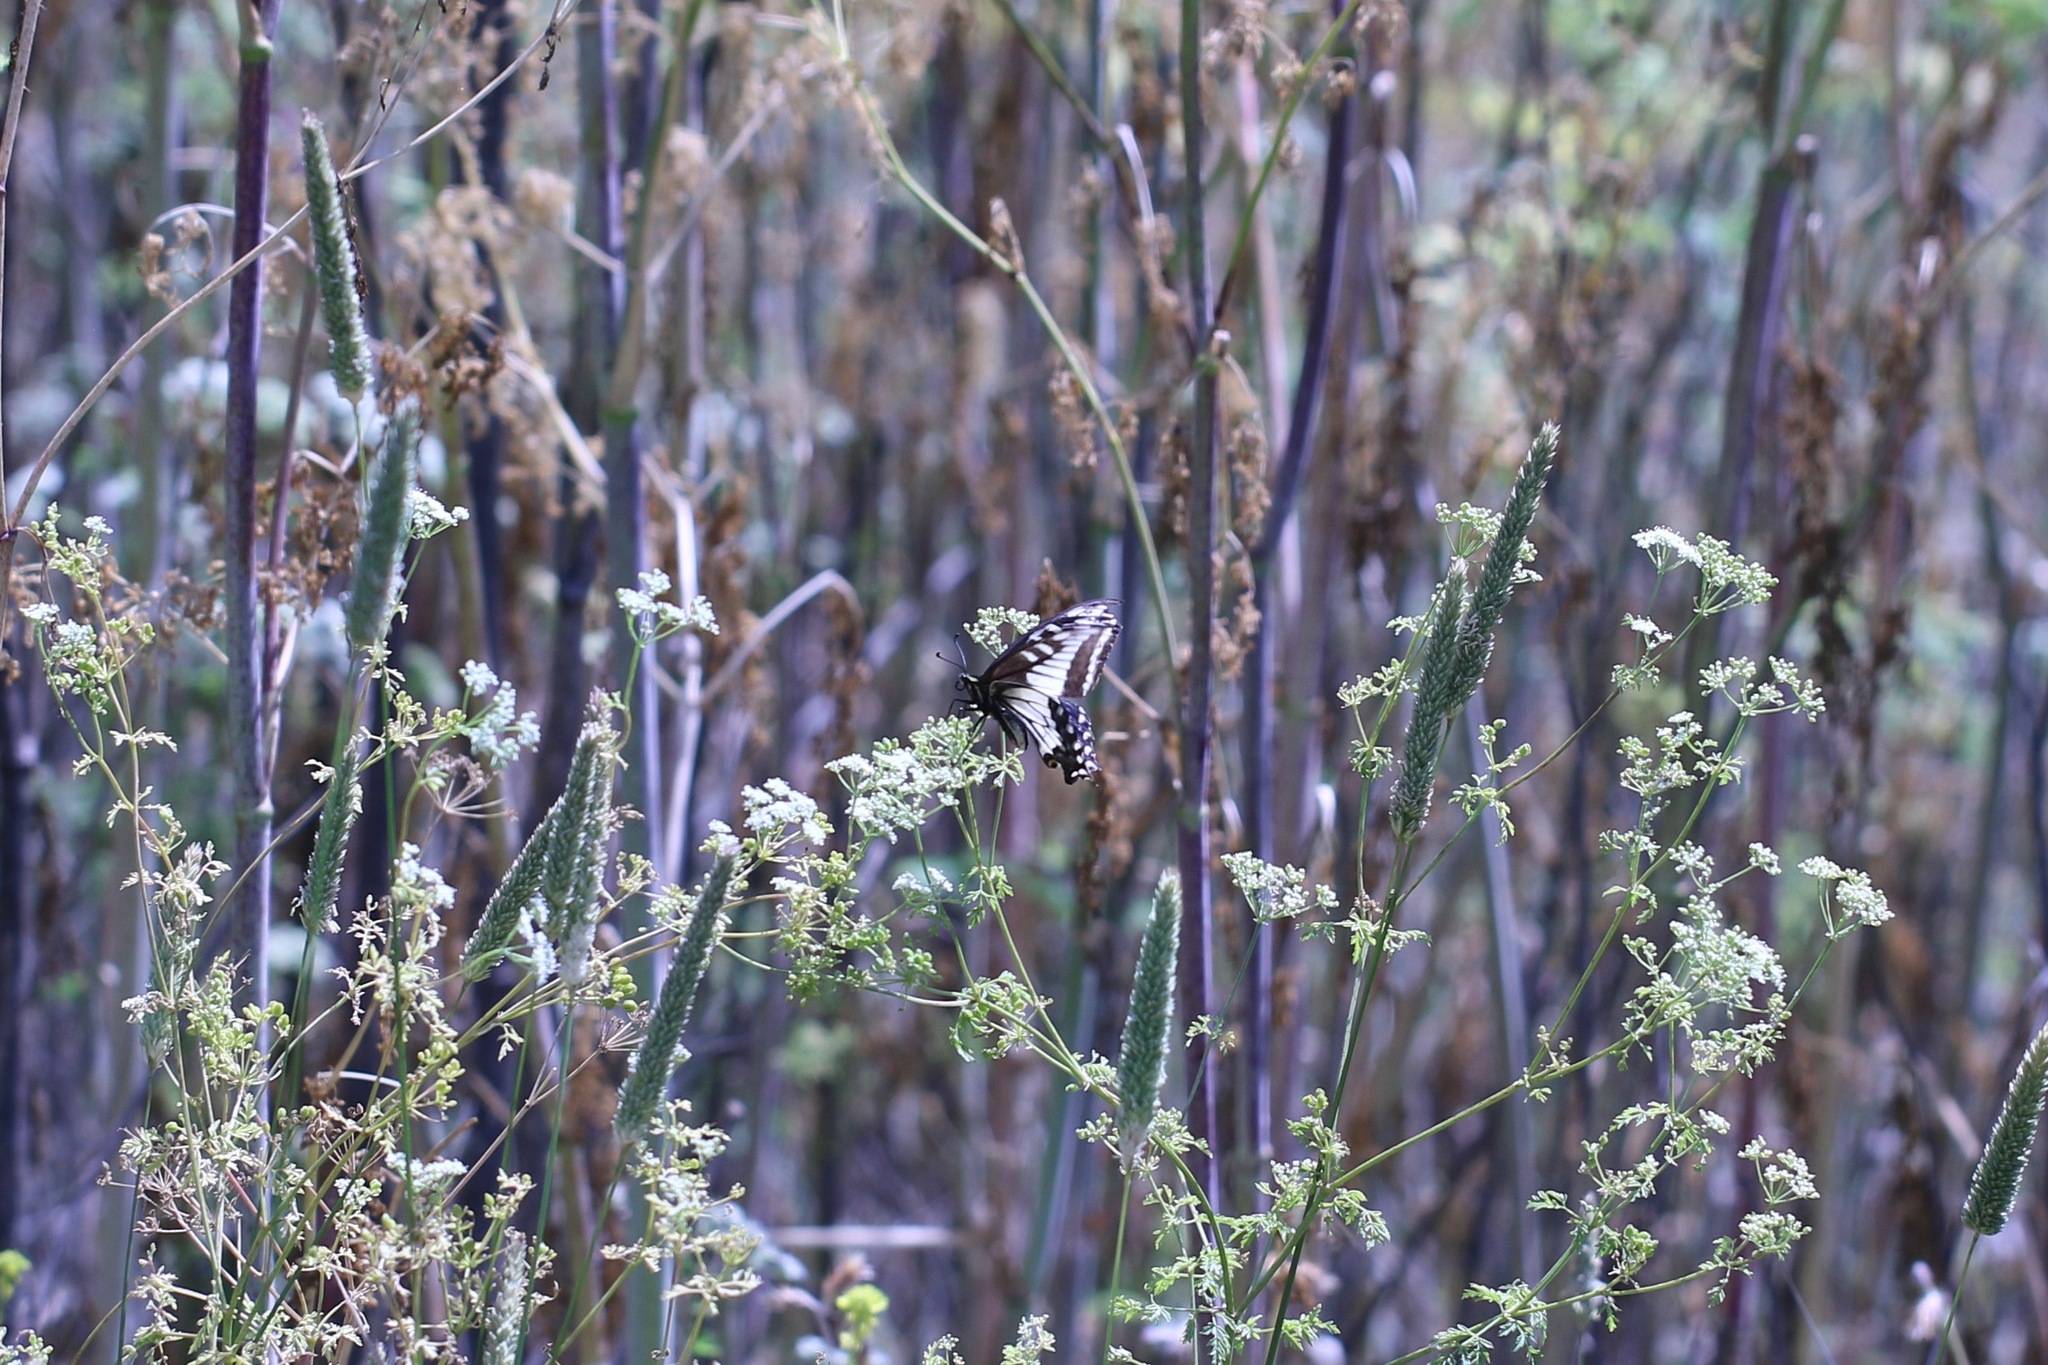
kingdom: Animalia
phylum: Arthropoda
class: Insecta
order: Lepidoptera
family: Papilionidae
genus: Papilio
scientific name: Papilio zelicaon
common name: Anise swallowtail
